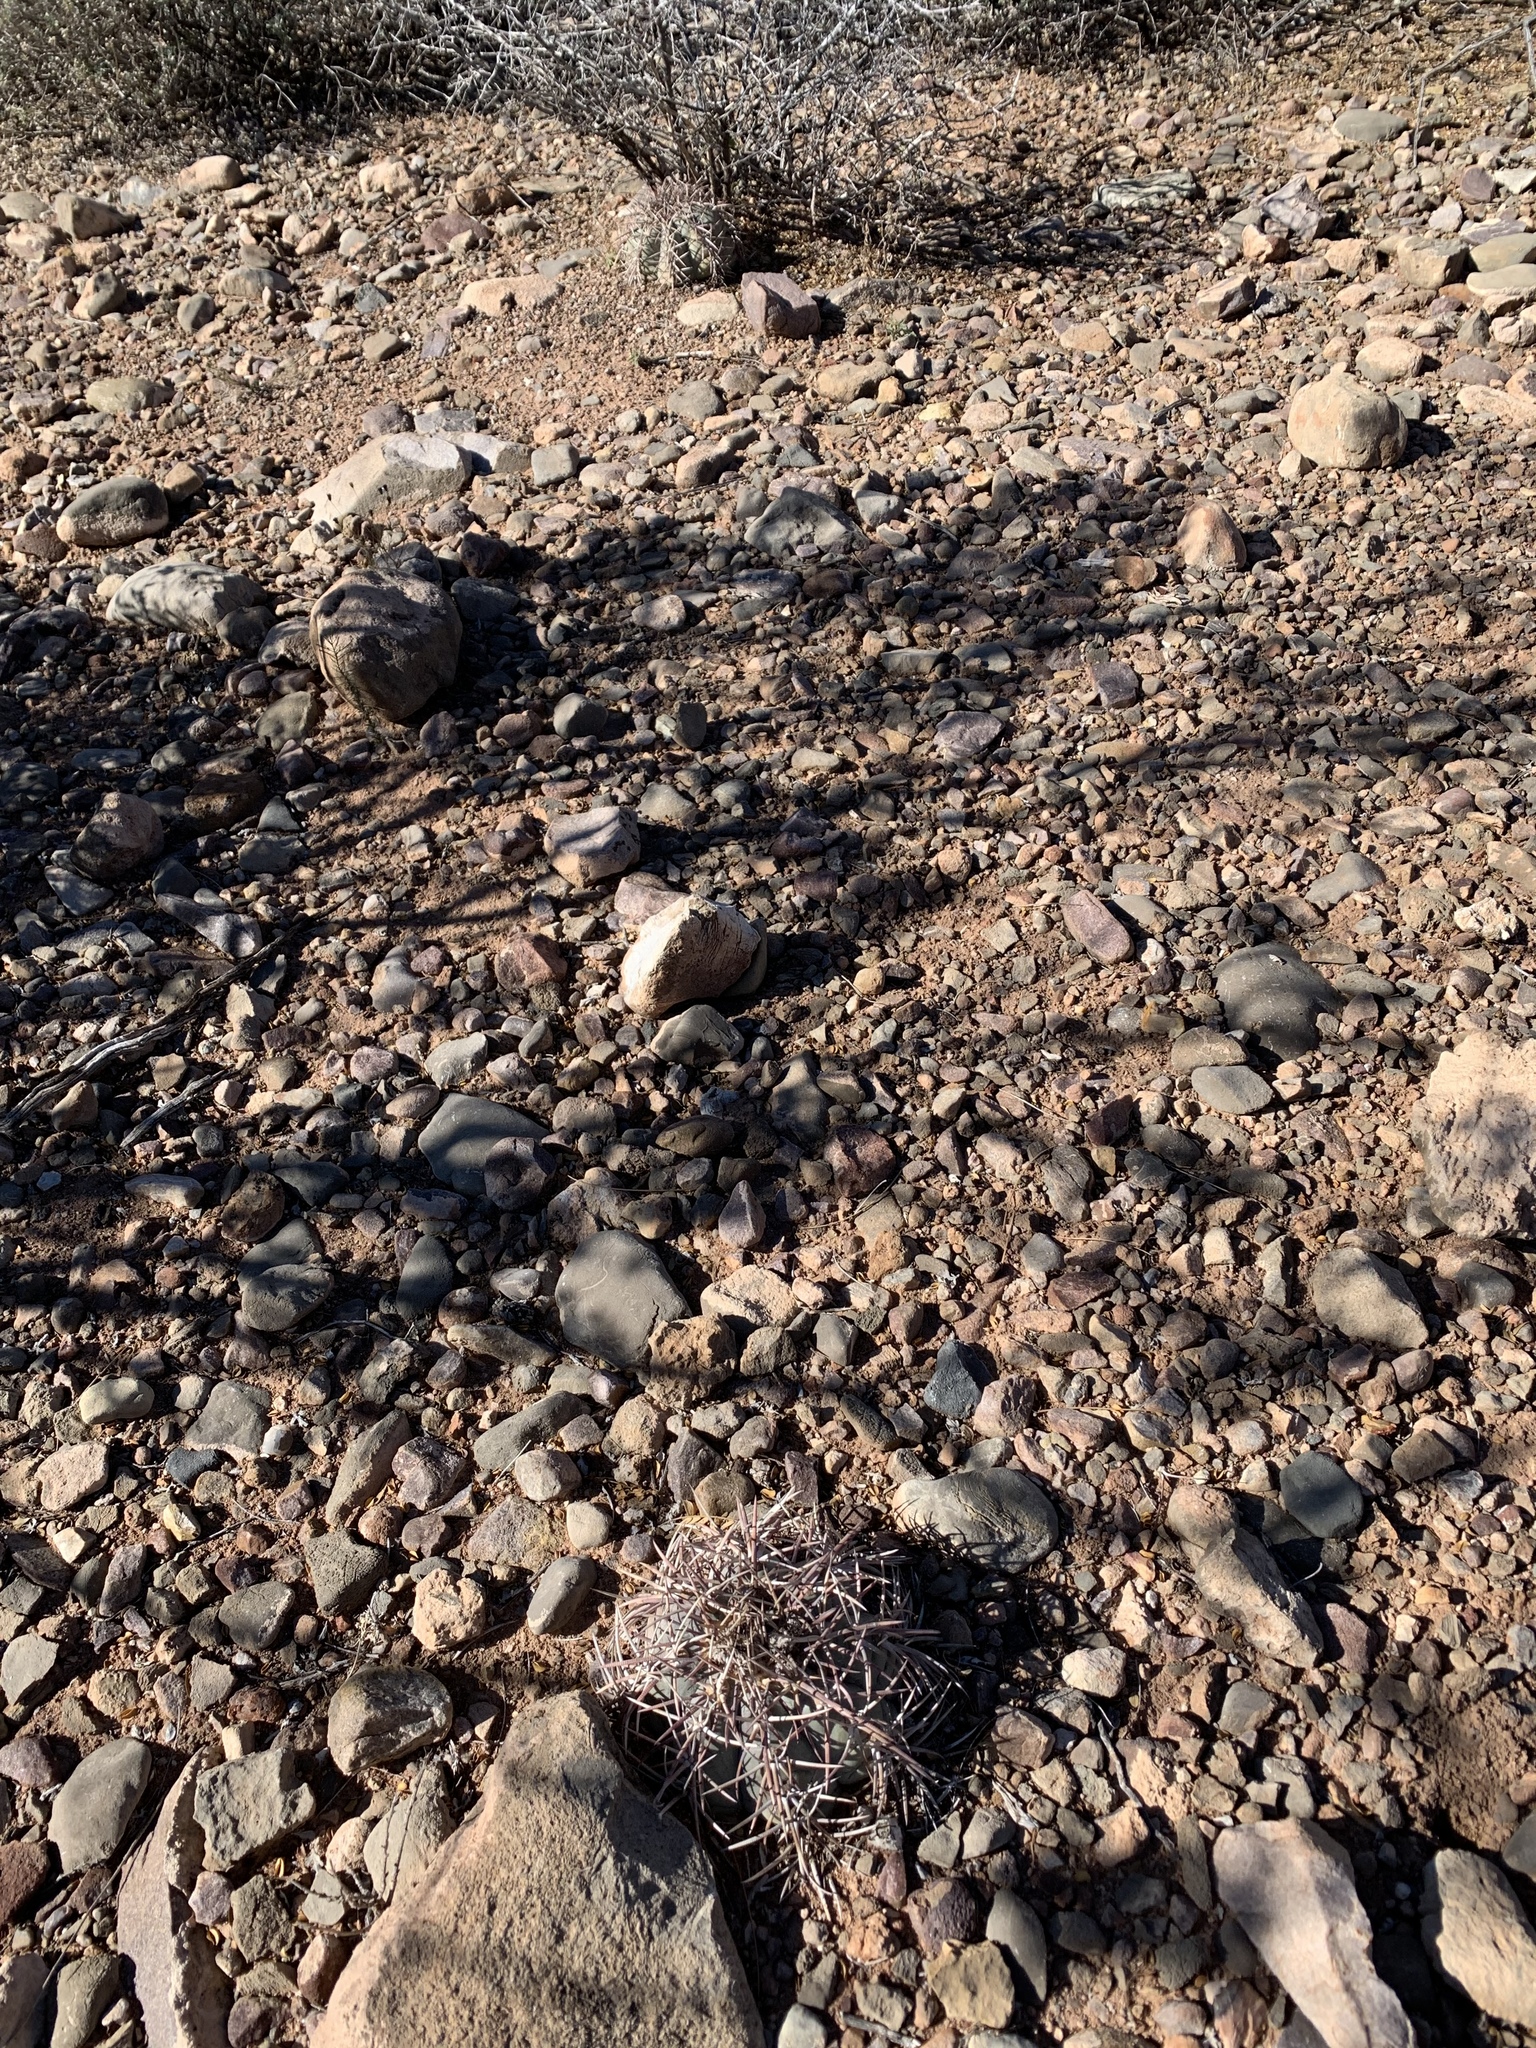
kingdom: Plantae
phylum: Tracheophyta
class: Magnoliopsida
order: Caryophyllales
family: Cactaceae
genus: Echinocactus
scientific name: Echinocactus horizonthalonius
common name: Devilshead
